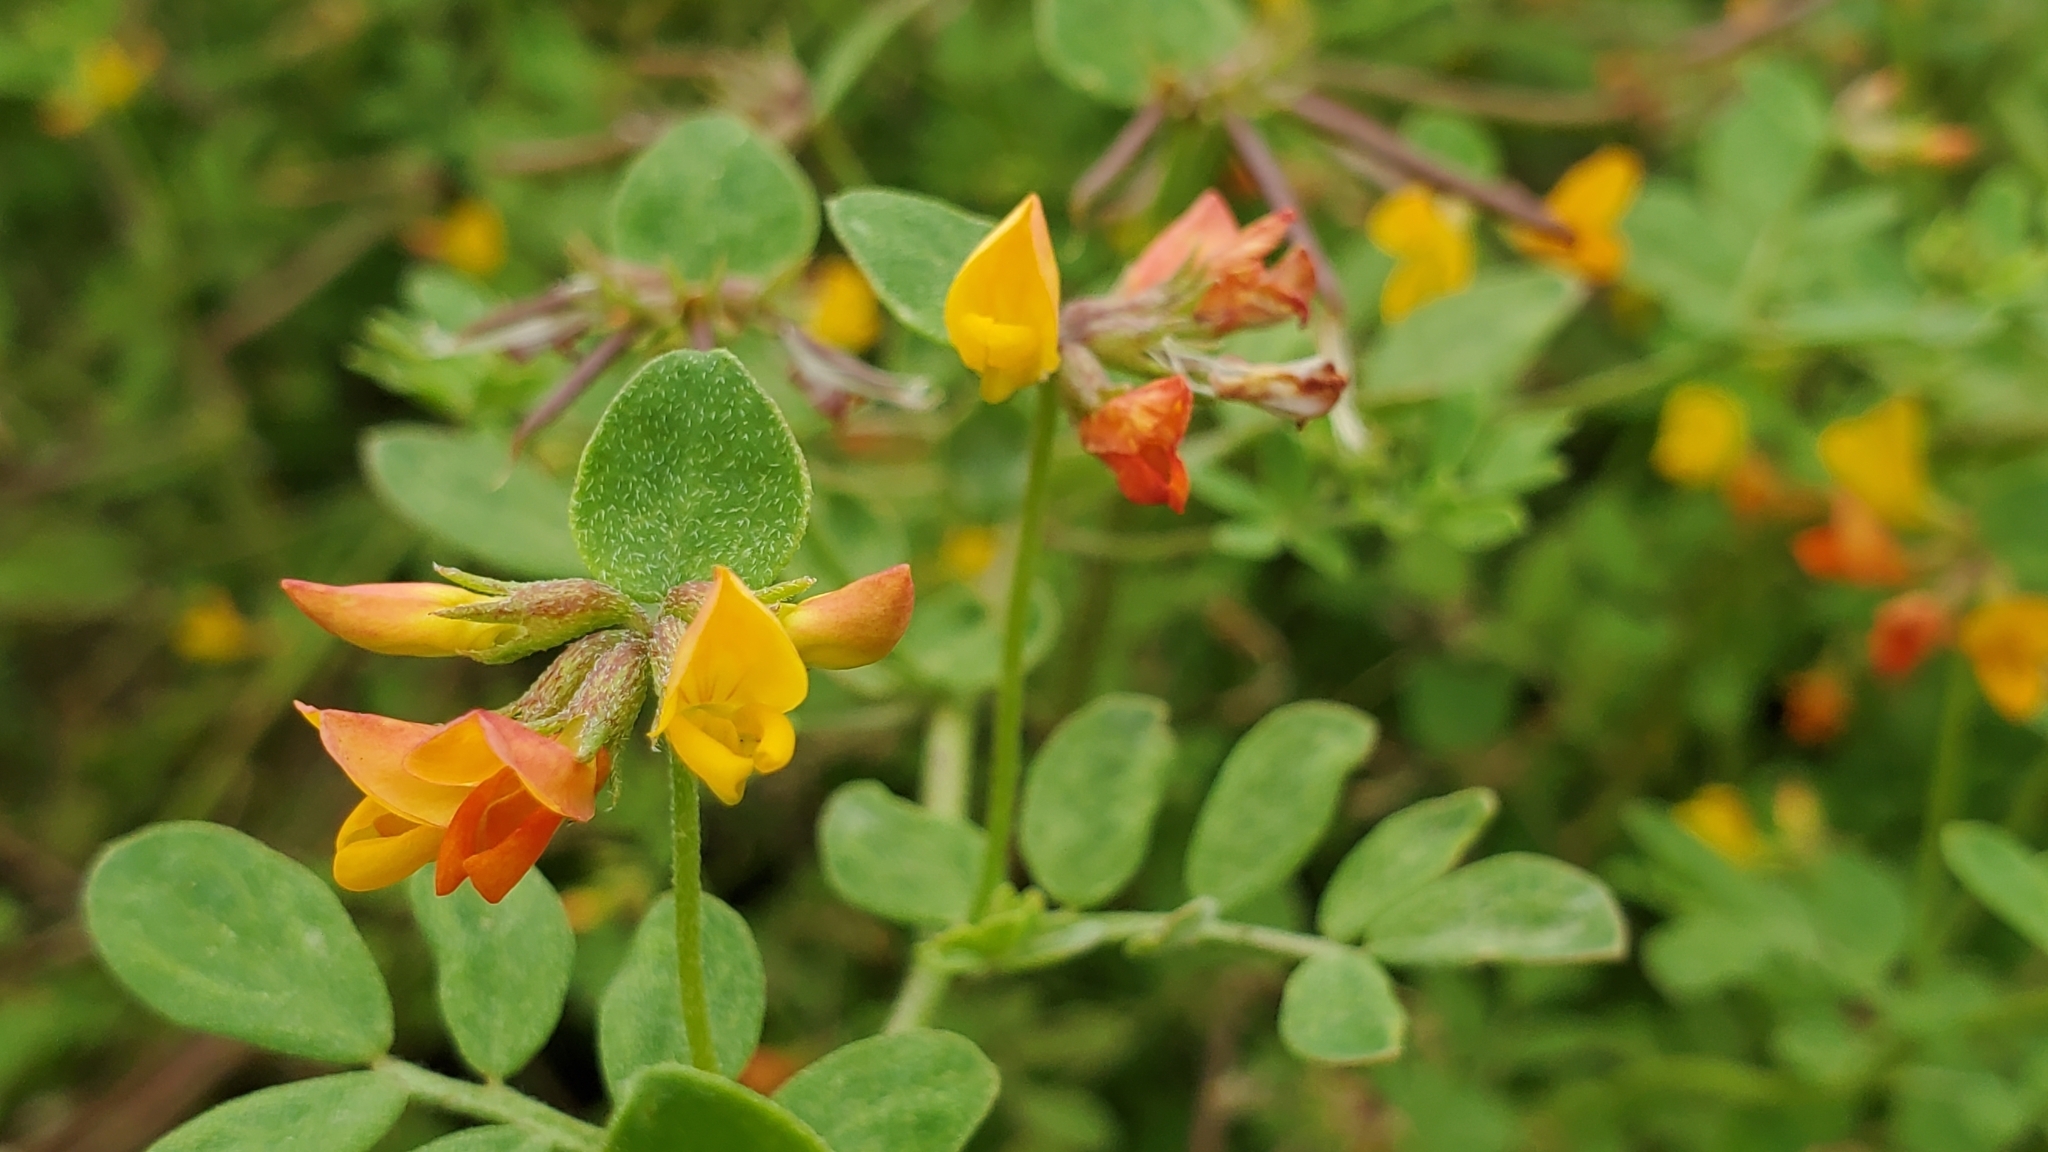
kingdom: Plantae
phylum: Tracheophyta
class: Magnoliopsida
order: Fabales
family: Fabaceae
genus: Acmispon
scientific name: Acmispon maritimus
